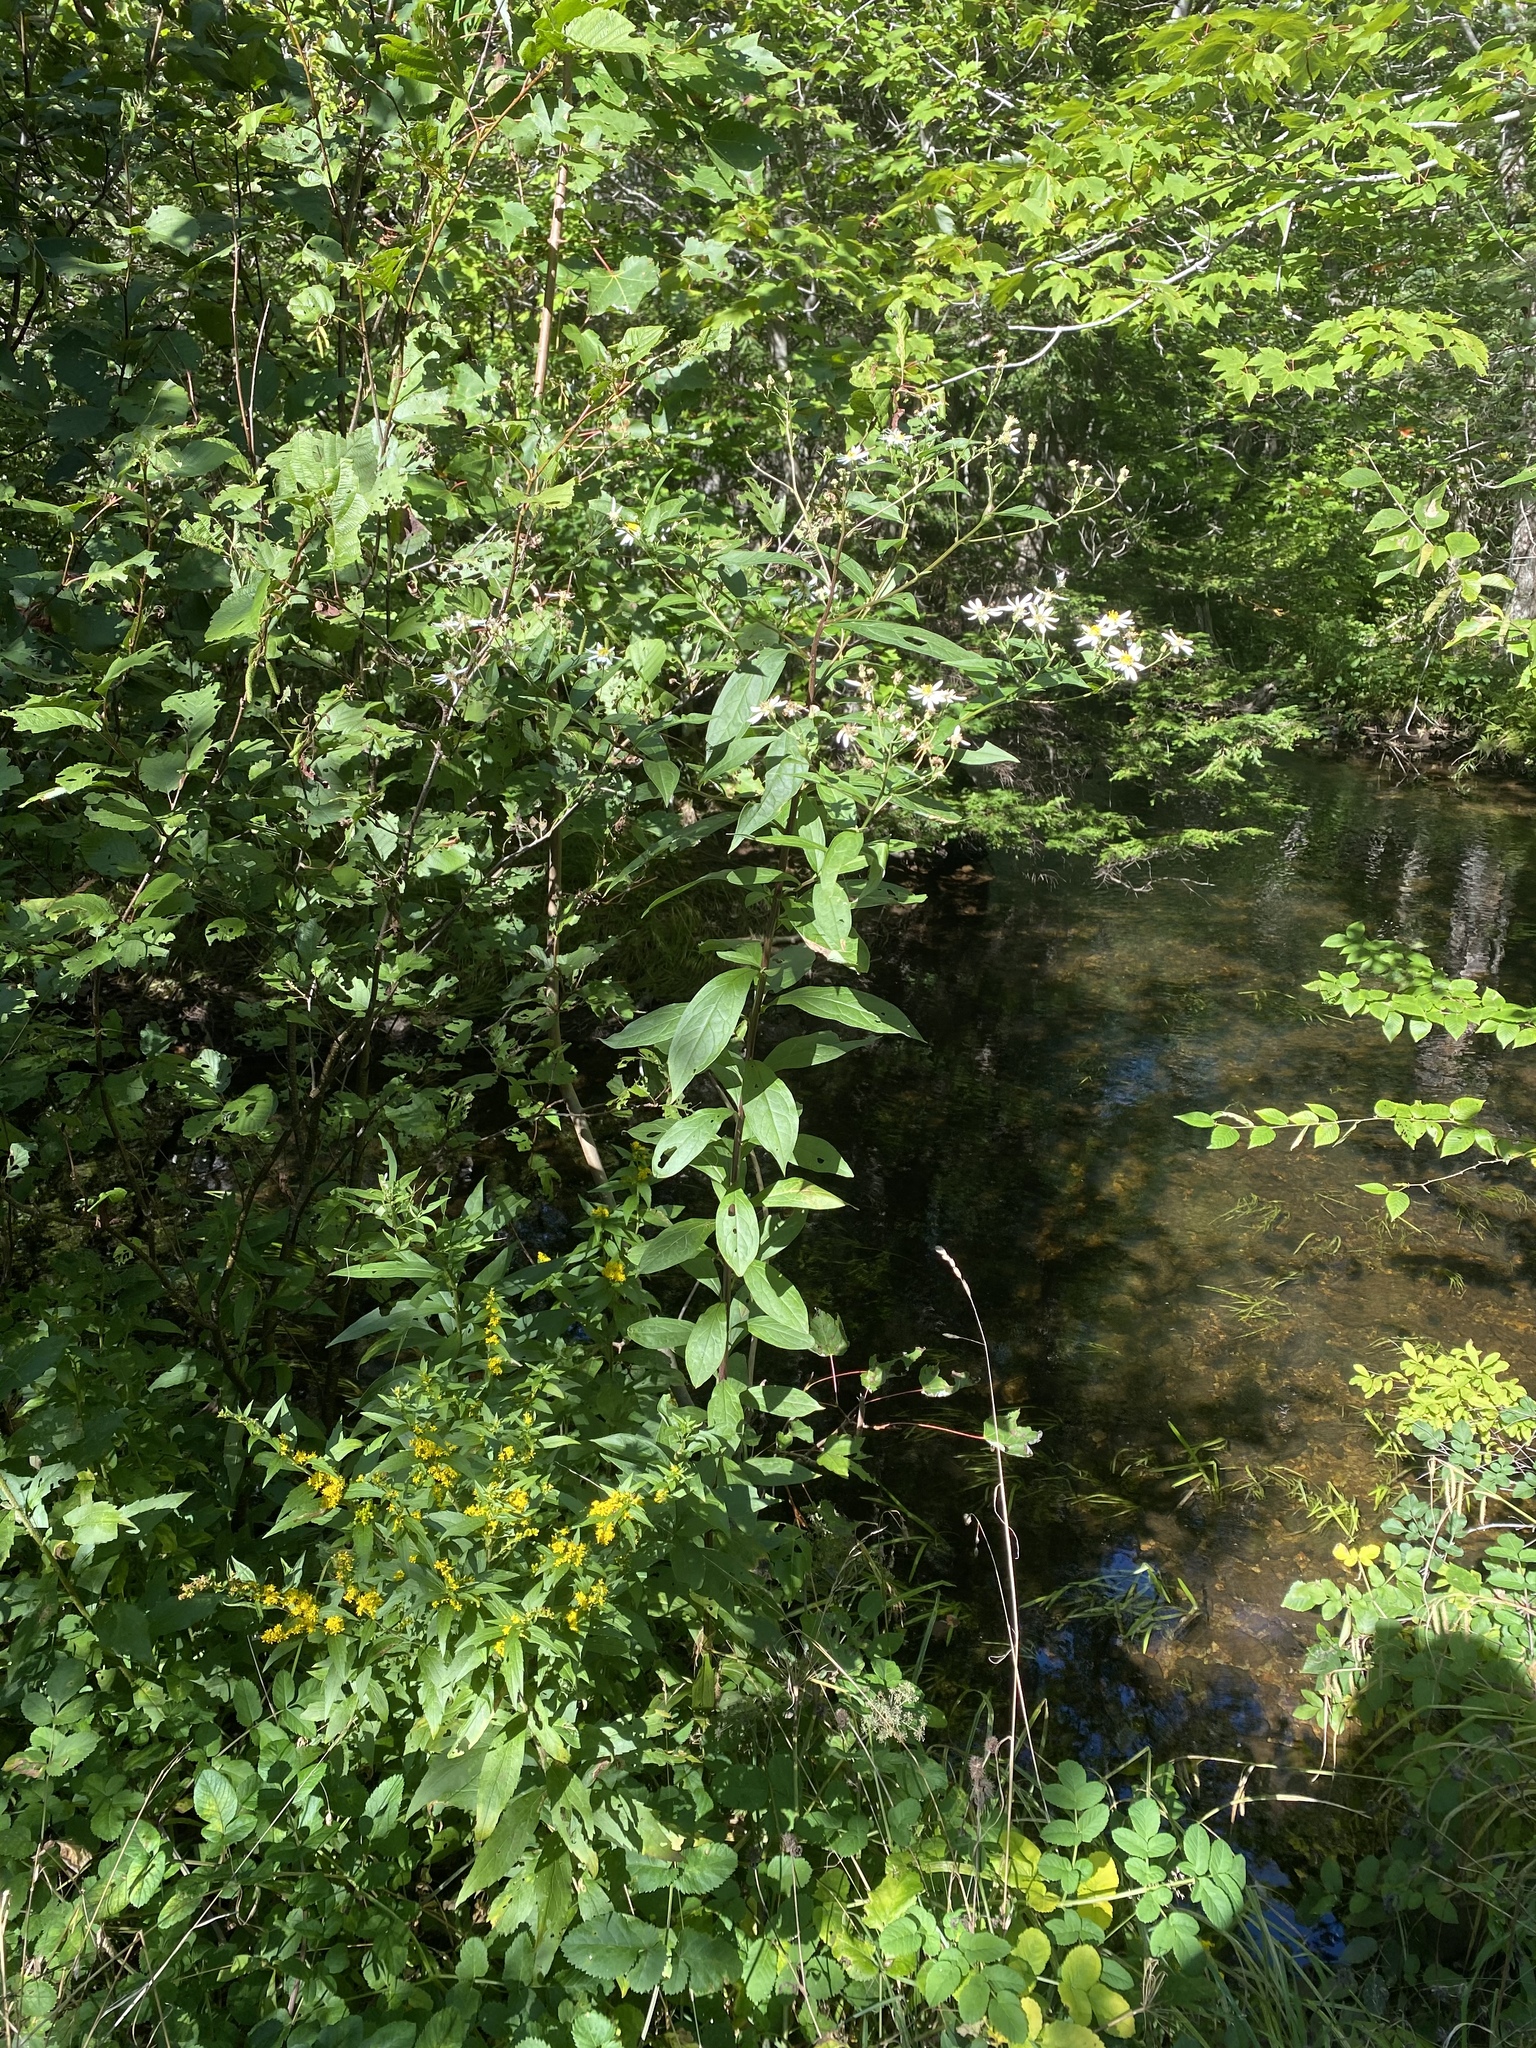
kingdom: Plantae
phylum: Tracheophyta
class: Magnoliopsida
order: Asterales
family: Asteraceae
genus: Doellingeria
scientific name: Doellingeria umbellata
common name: Flat-top white aster
